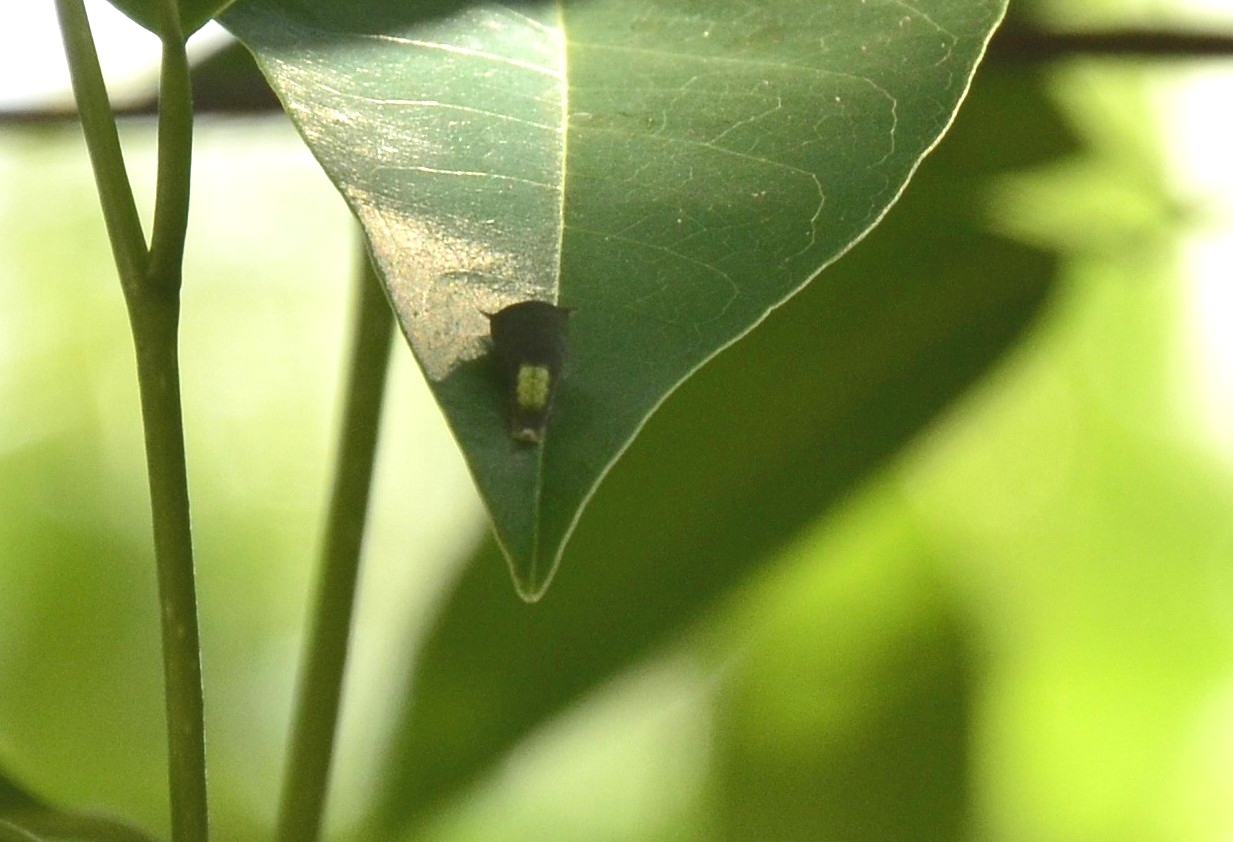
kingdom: Animalia
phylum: Arthropoda
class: Insecta
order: Lepidoptera
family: Papilionidae
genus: Graphium
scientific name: Graphium agamemnon
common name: Tailed jay
